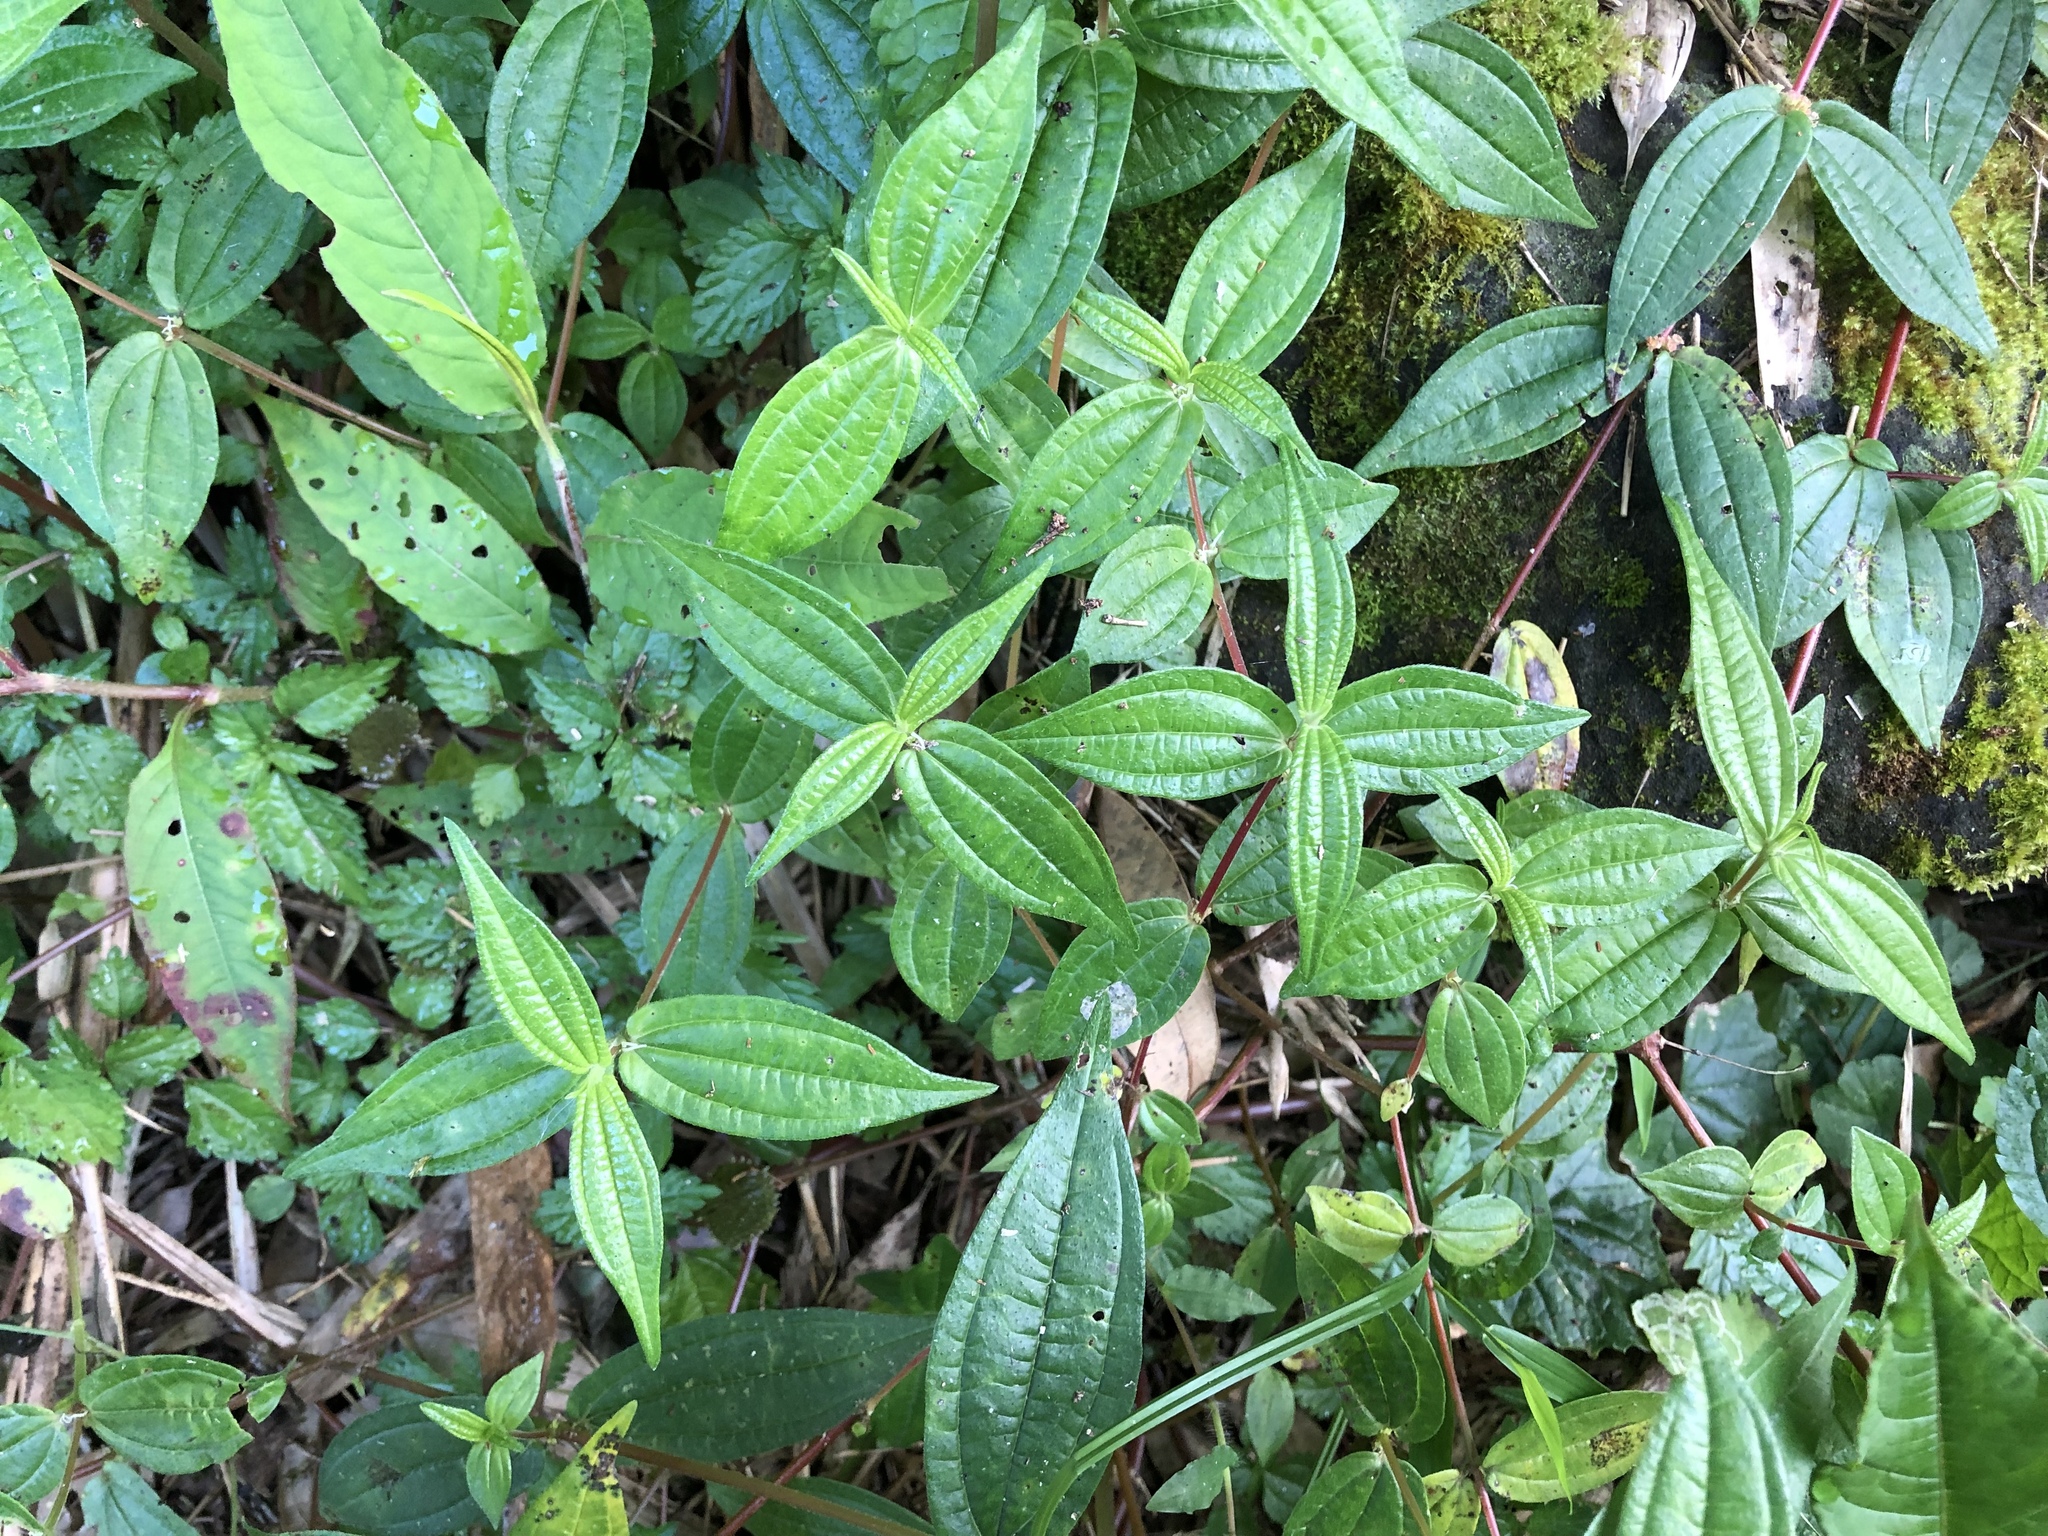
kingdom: Plantae
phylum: Tracheophyta
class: Magnoliopsida
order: Rosales
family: Urticaceae
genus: Gonostegia
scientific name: Gonostegia triandra
